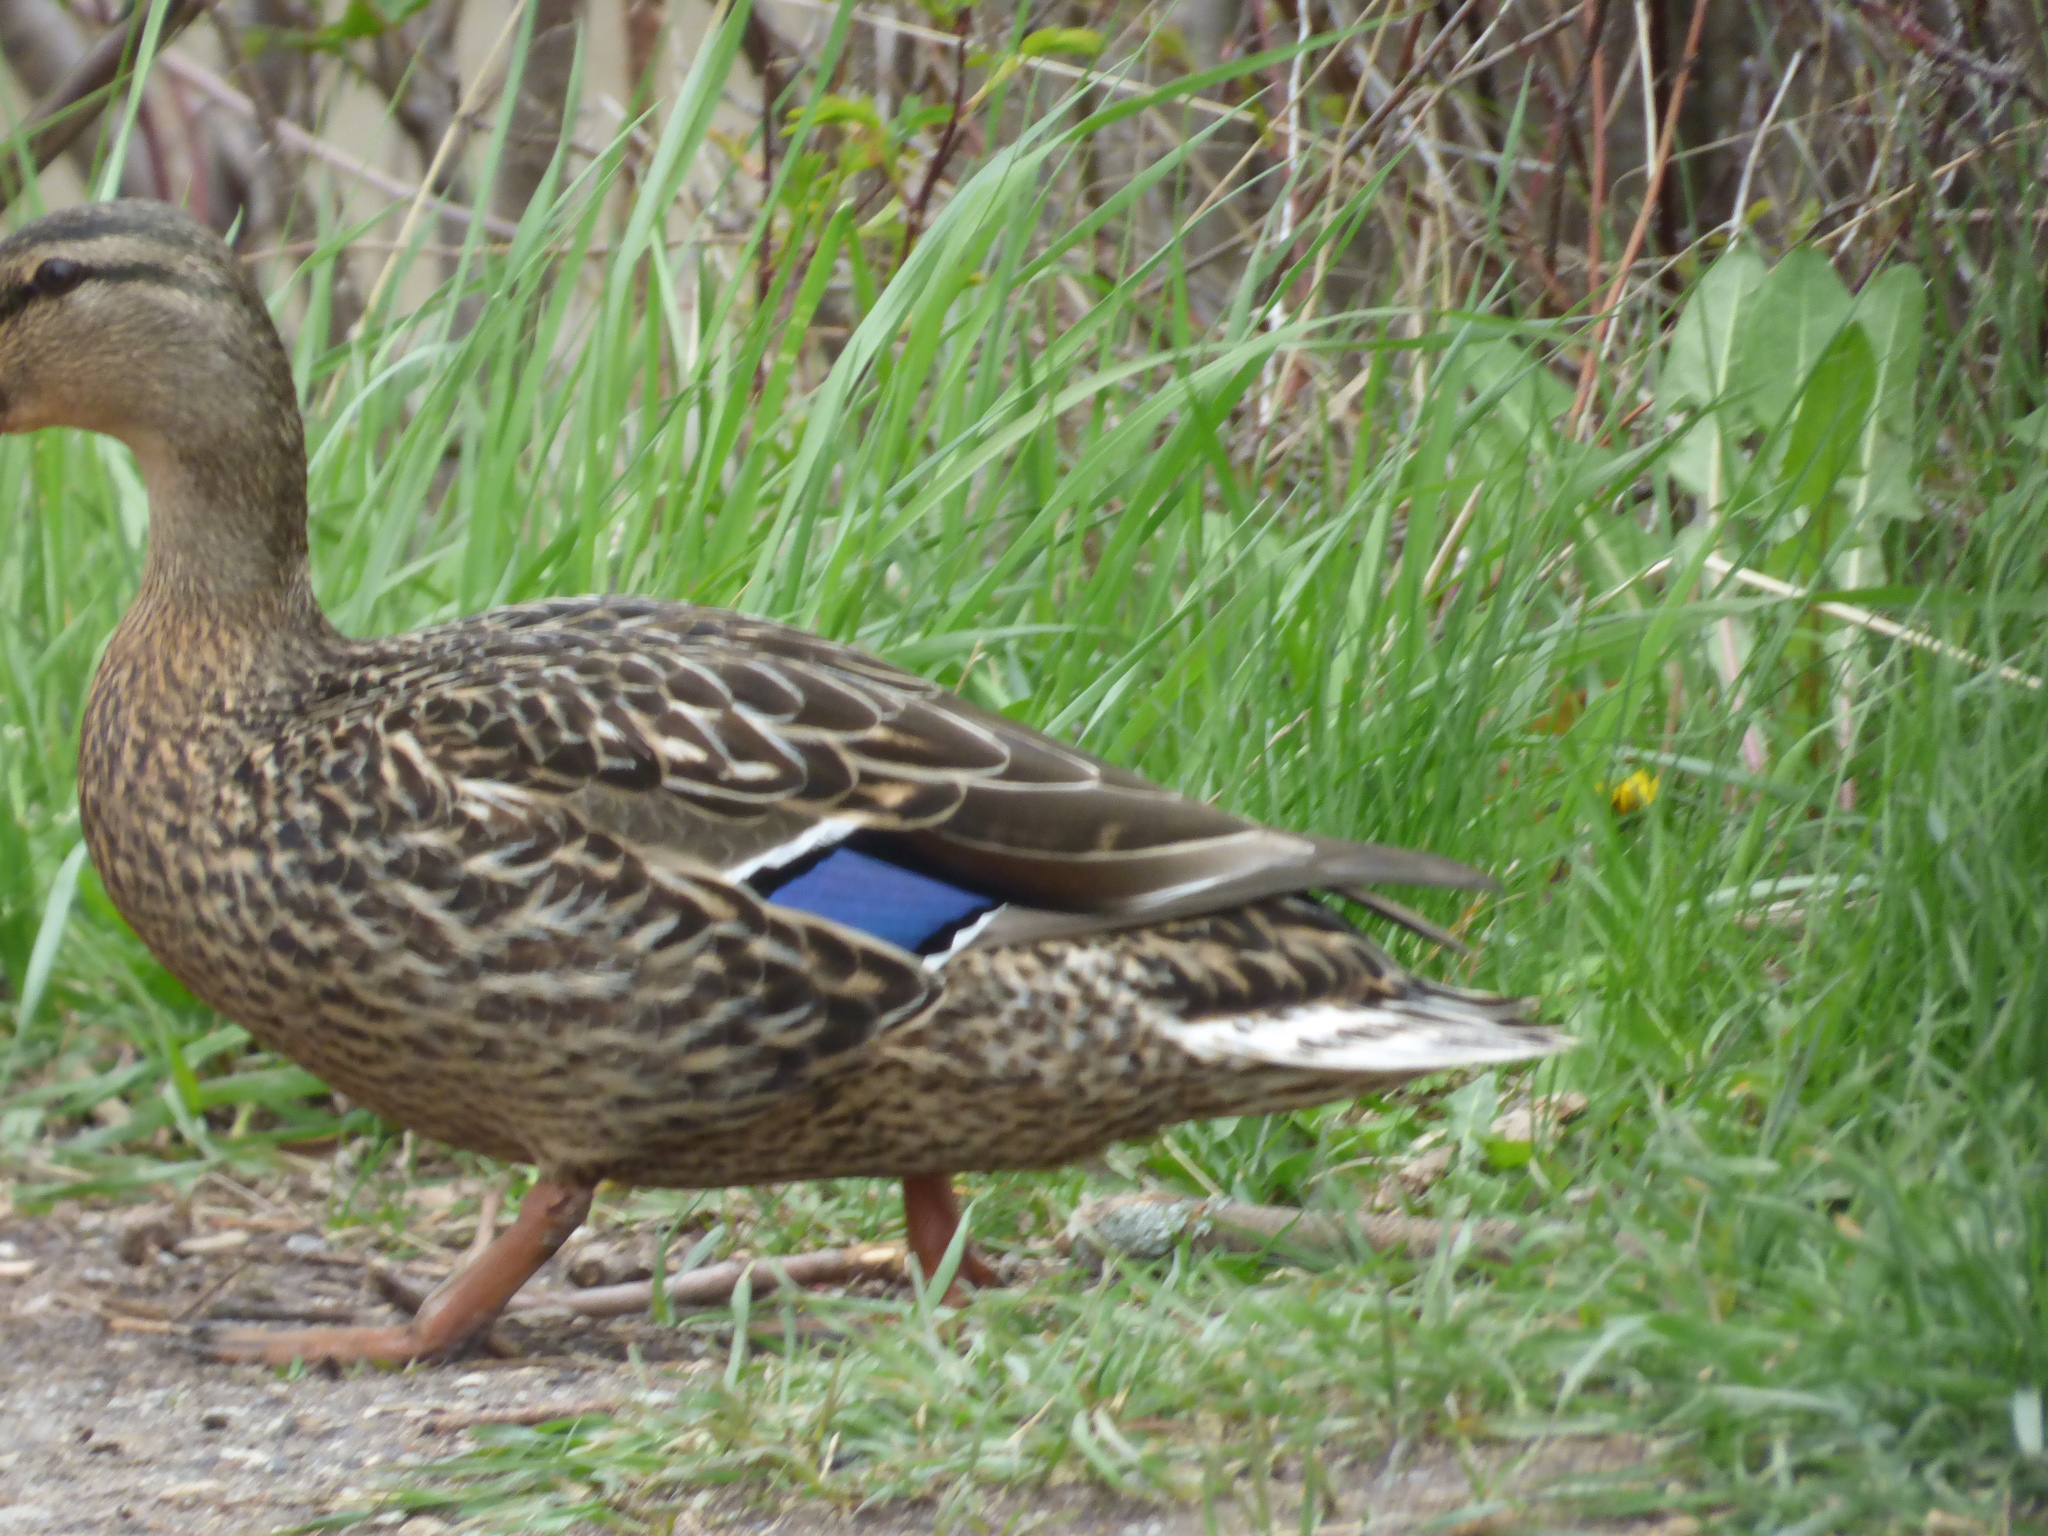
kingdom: Animalia
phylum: Chordata
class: Aves
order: Anseriformes
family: Anatidae
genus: Anas
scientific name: Anas platyrhynchos
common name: Mallard
